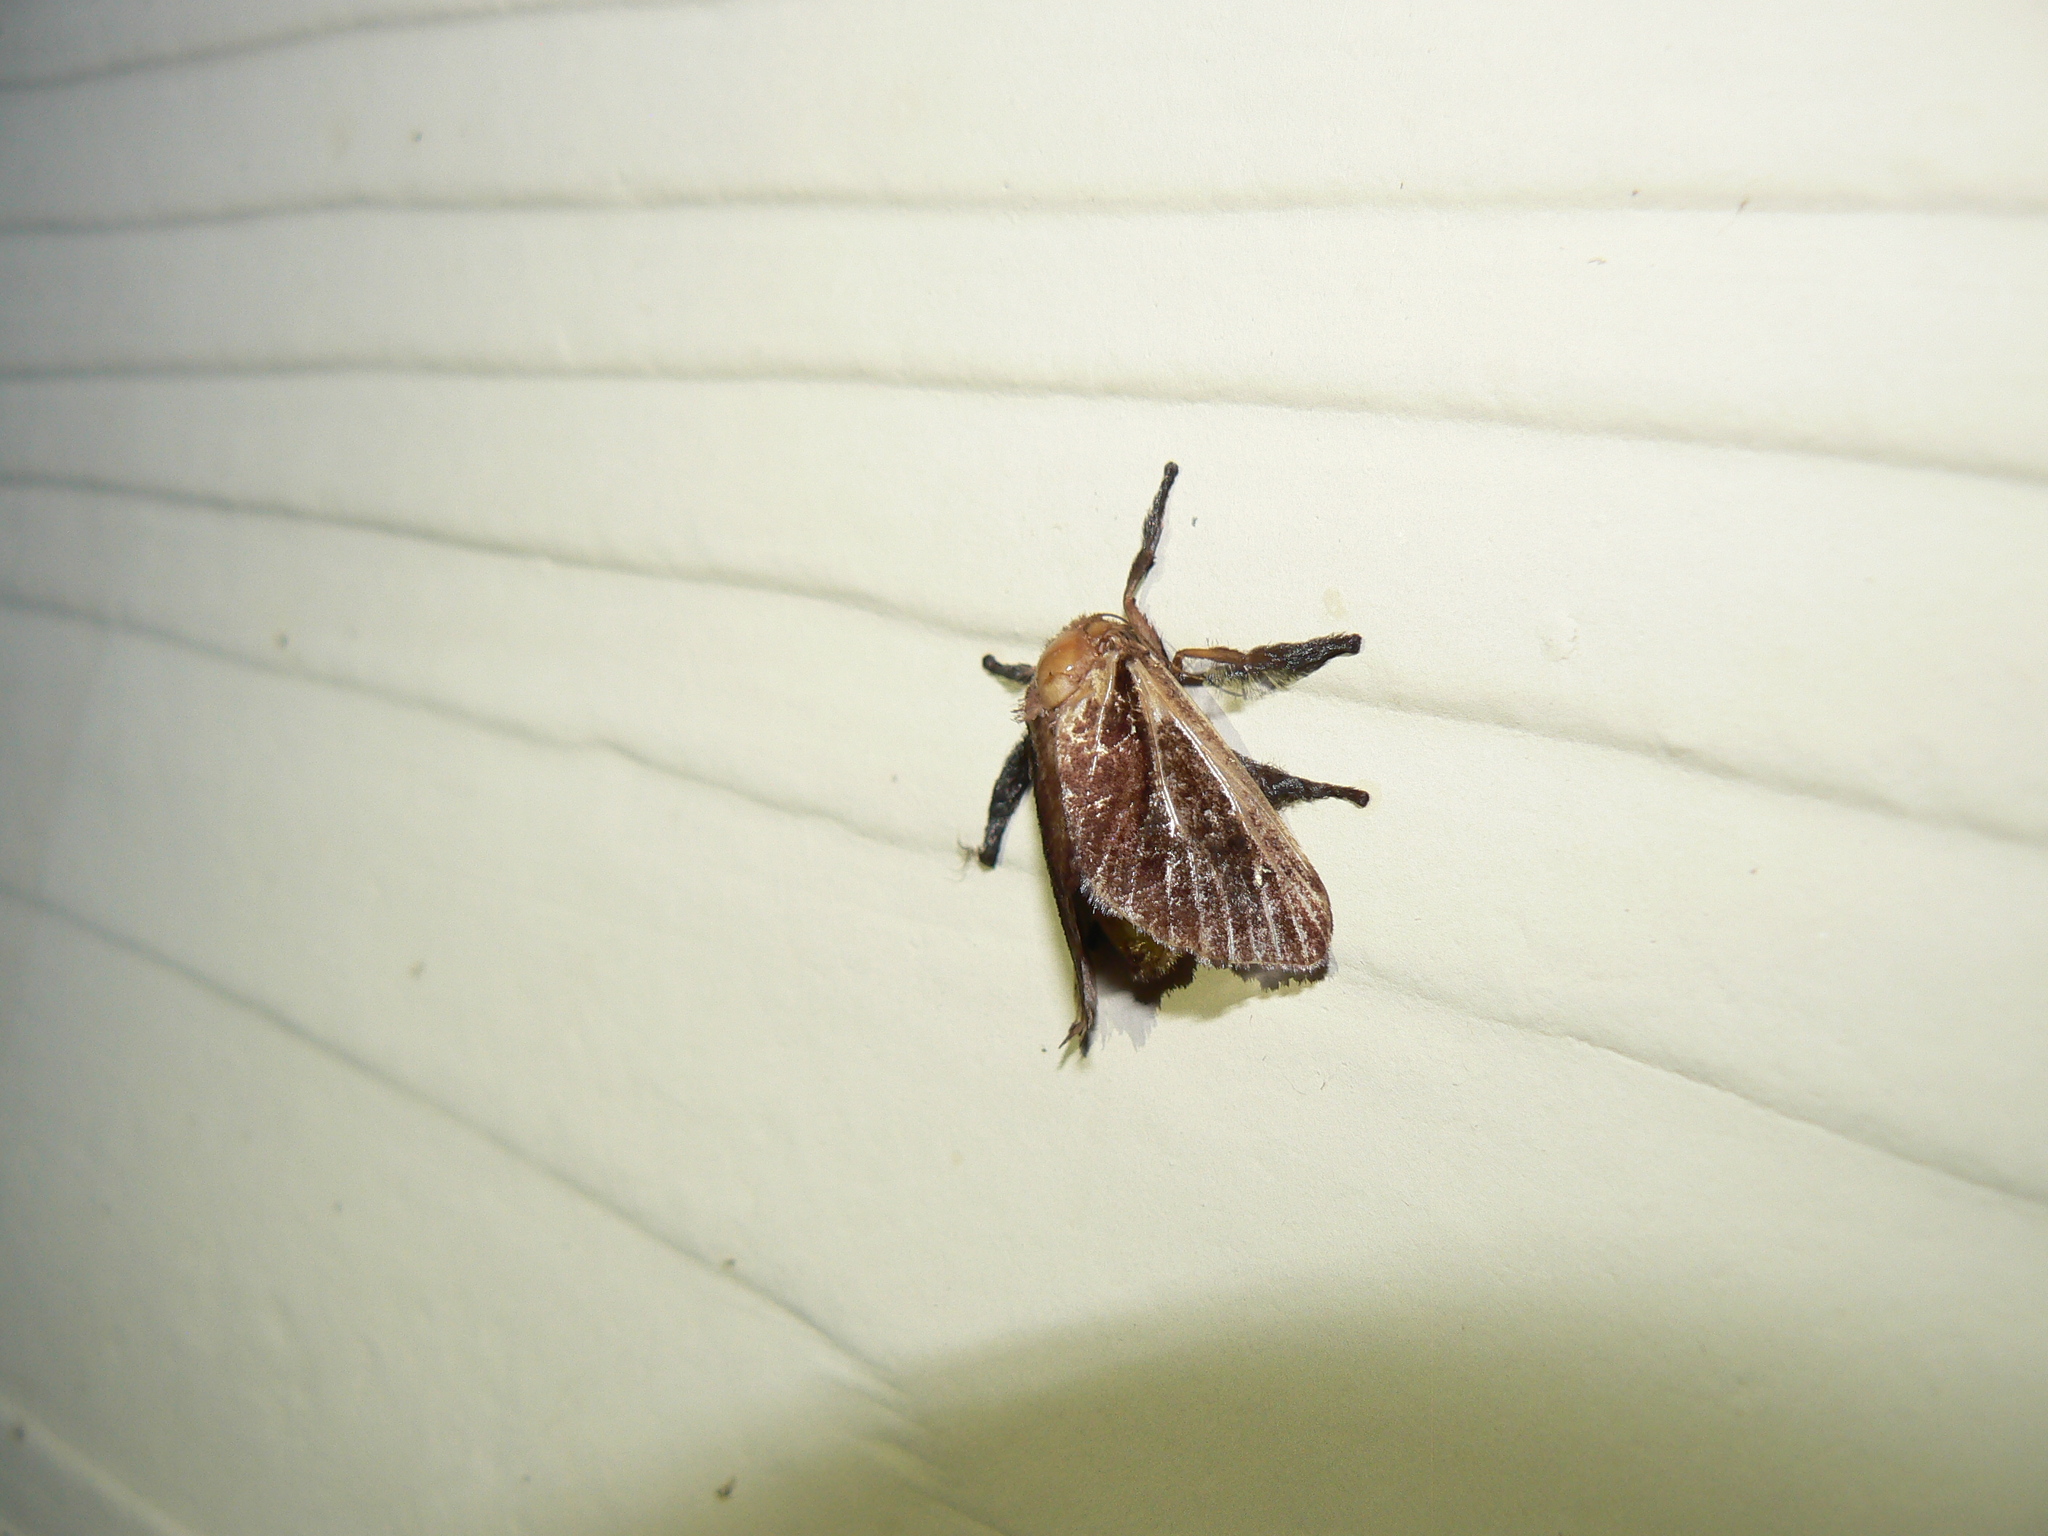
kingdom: Animalia
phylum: Arthropoda
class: Insecta
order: Lepidoptera
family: Limacodidae
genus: Acharia
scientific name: Acharia stimulea
